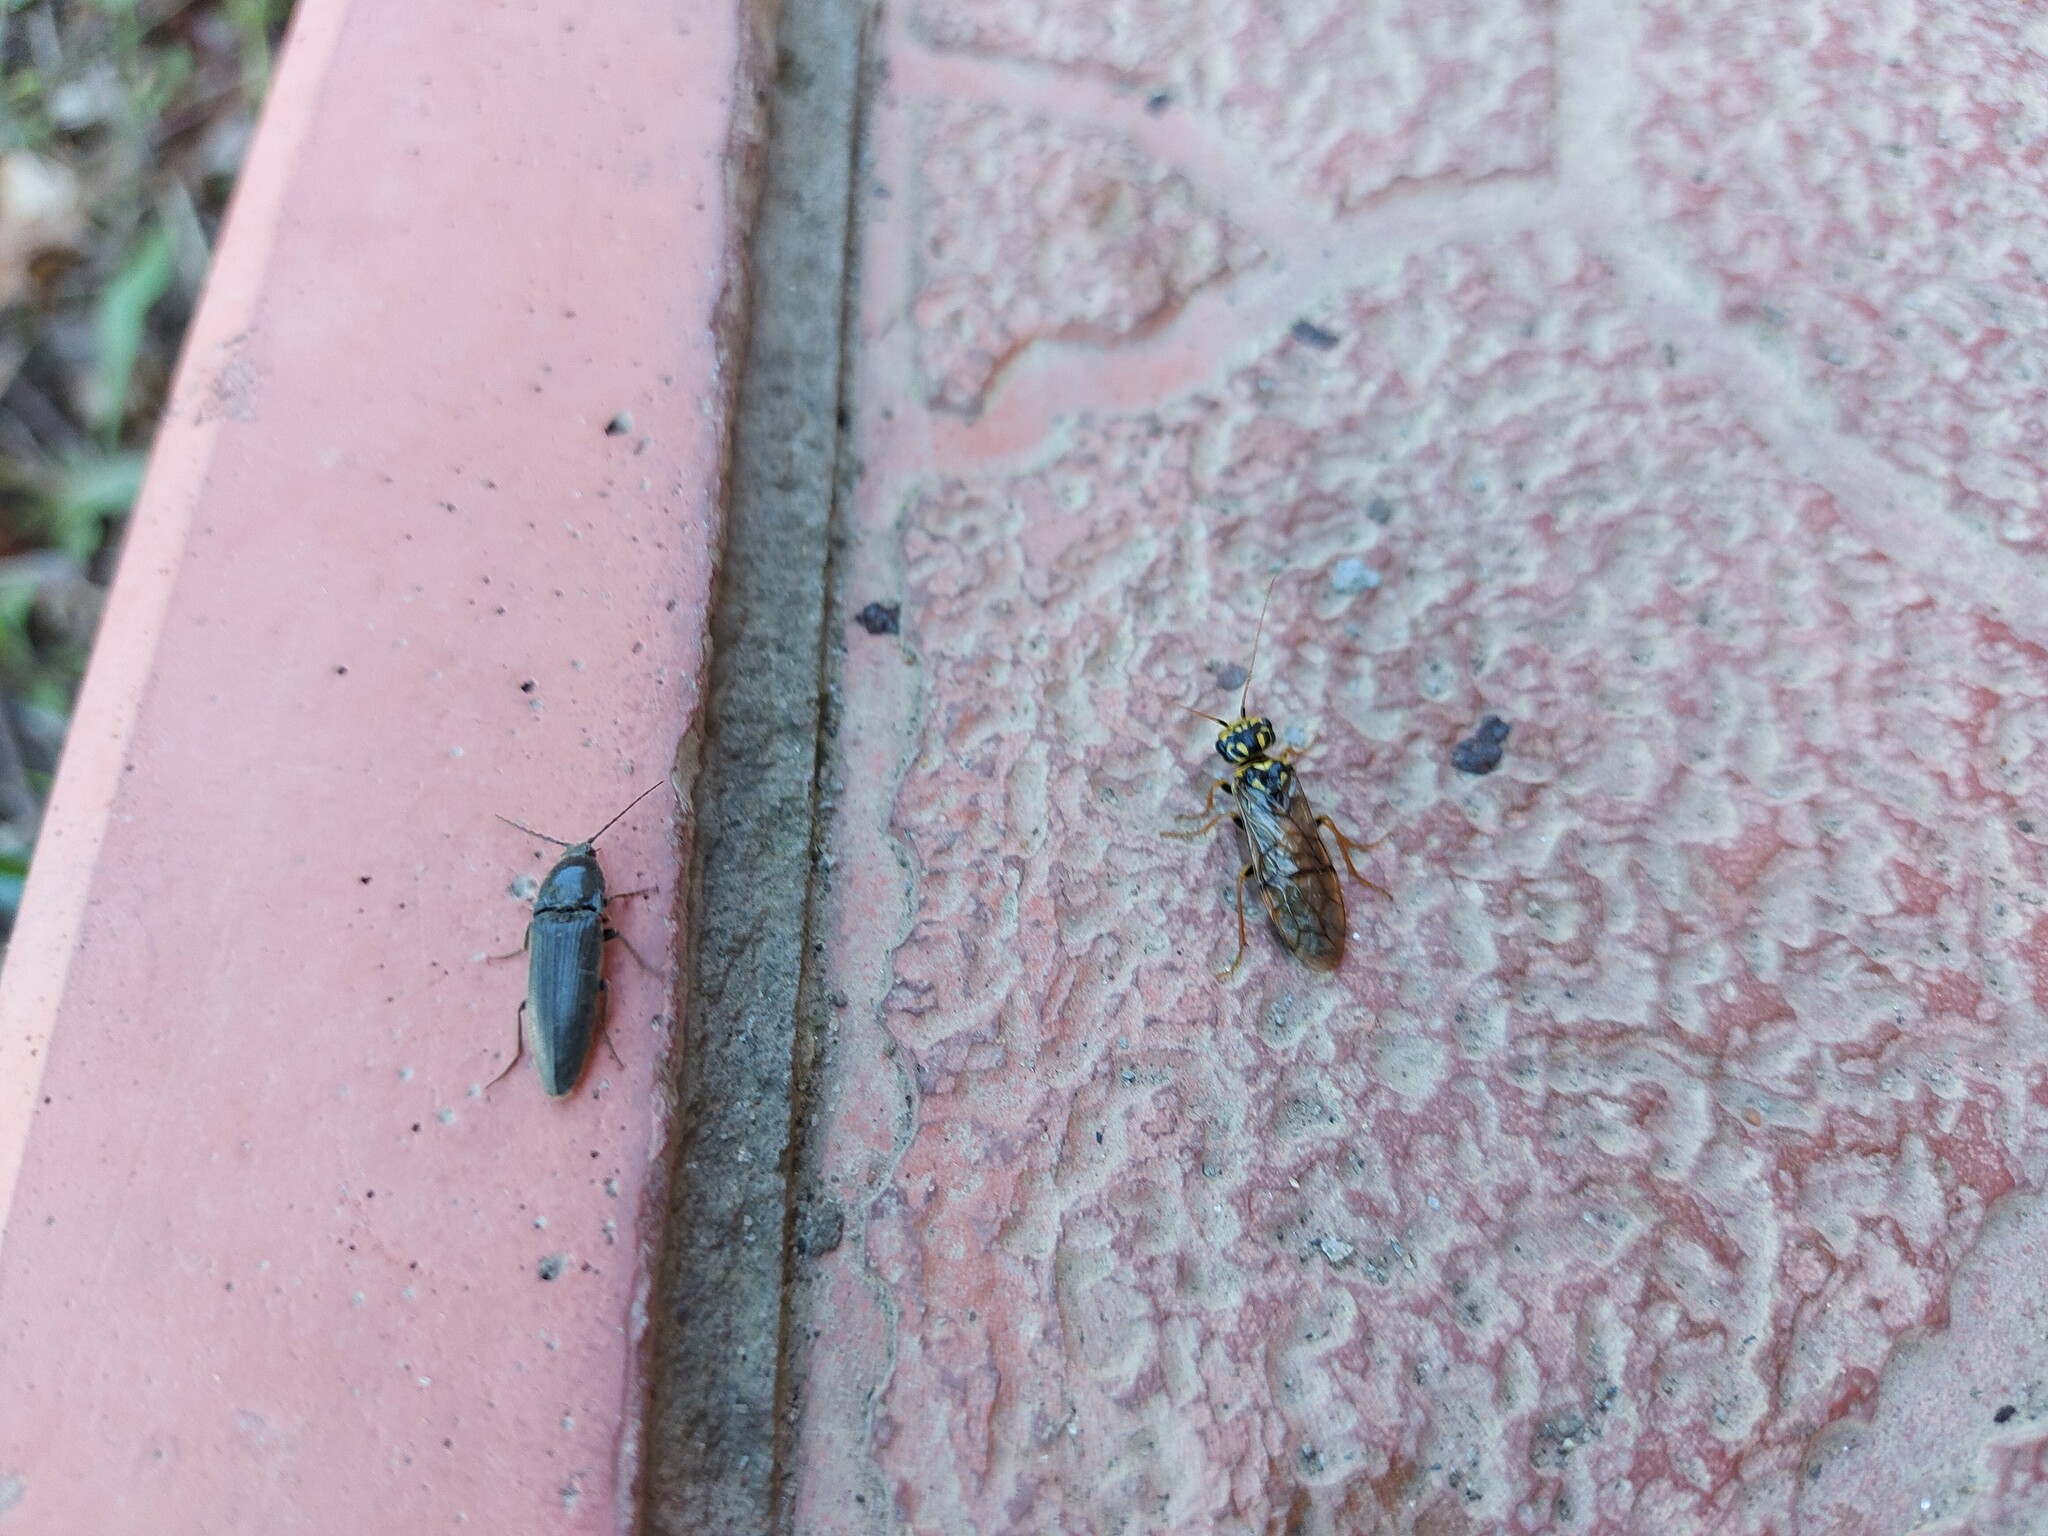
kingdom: Animalia
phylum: Arthropoda
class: Insecta
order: Hymenoptera
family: Pamphiliidae
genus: Acantholyda
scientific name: Acantholyda posticalis
